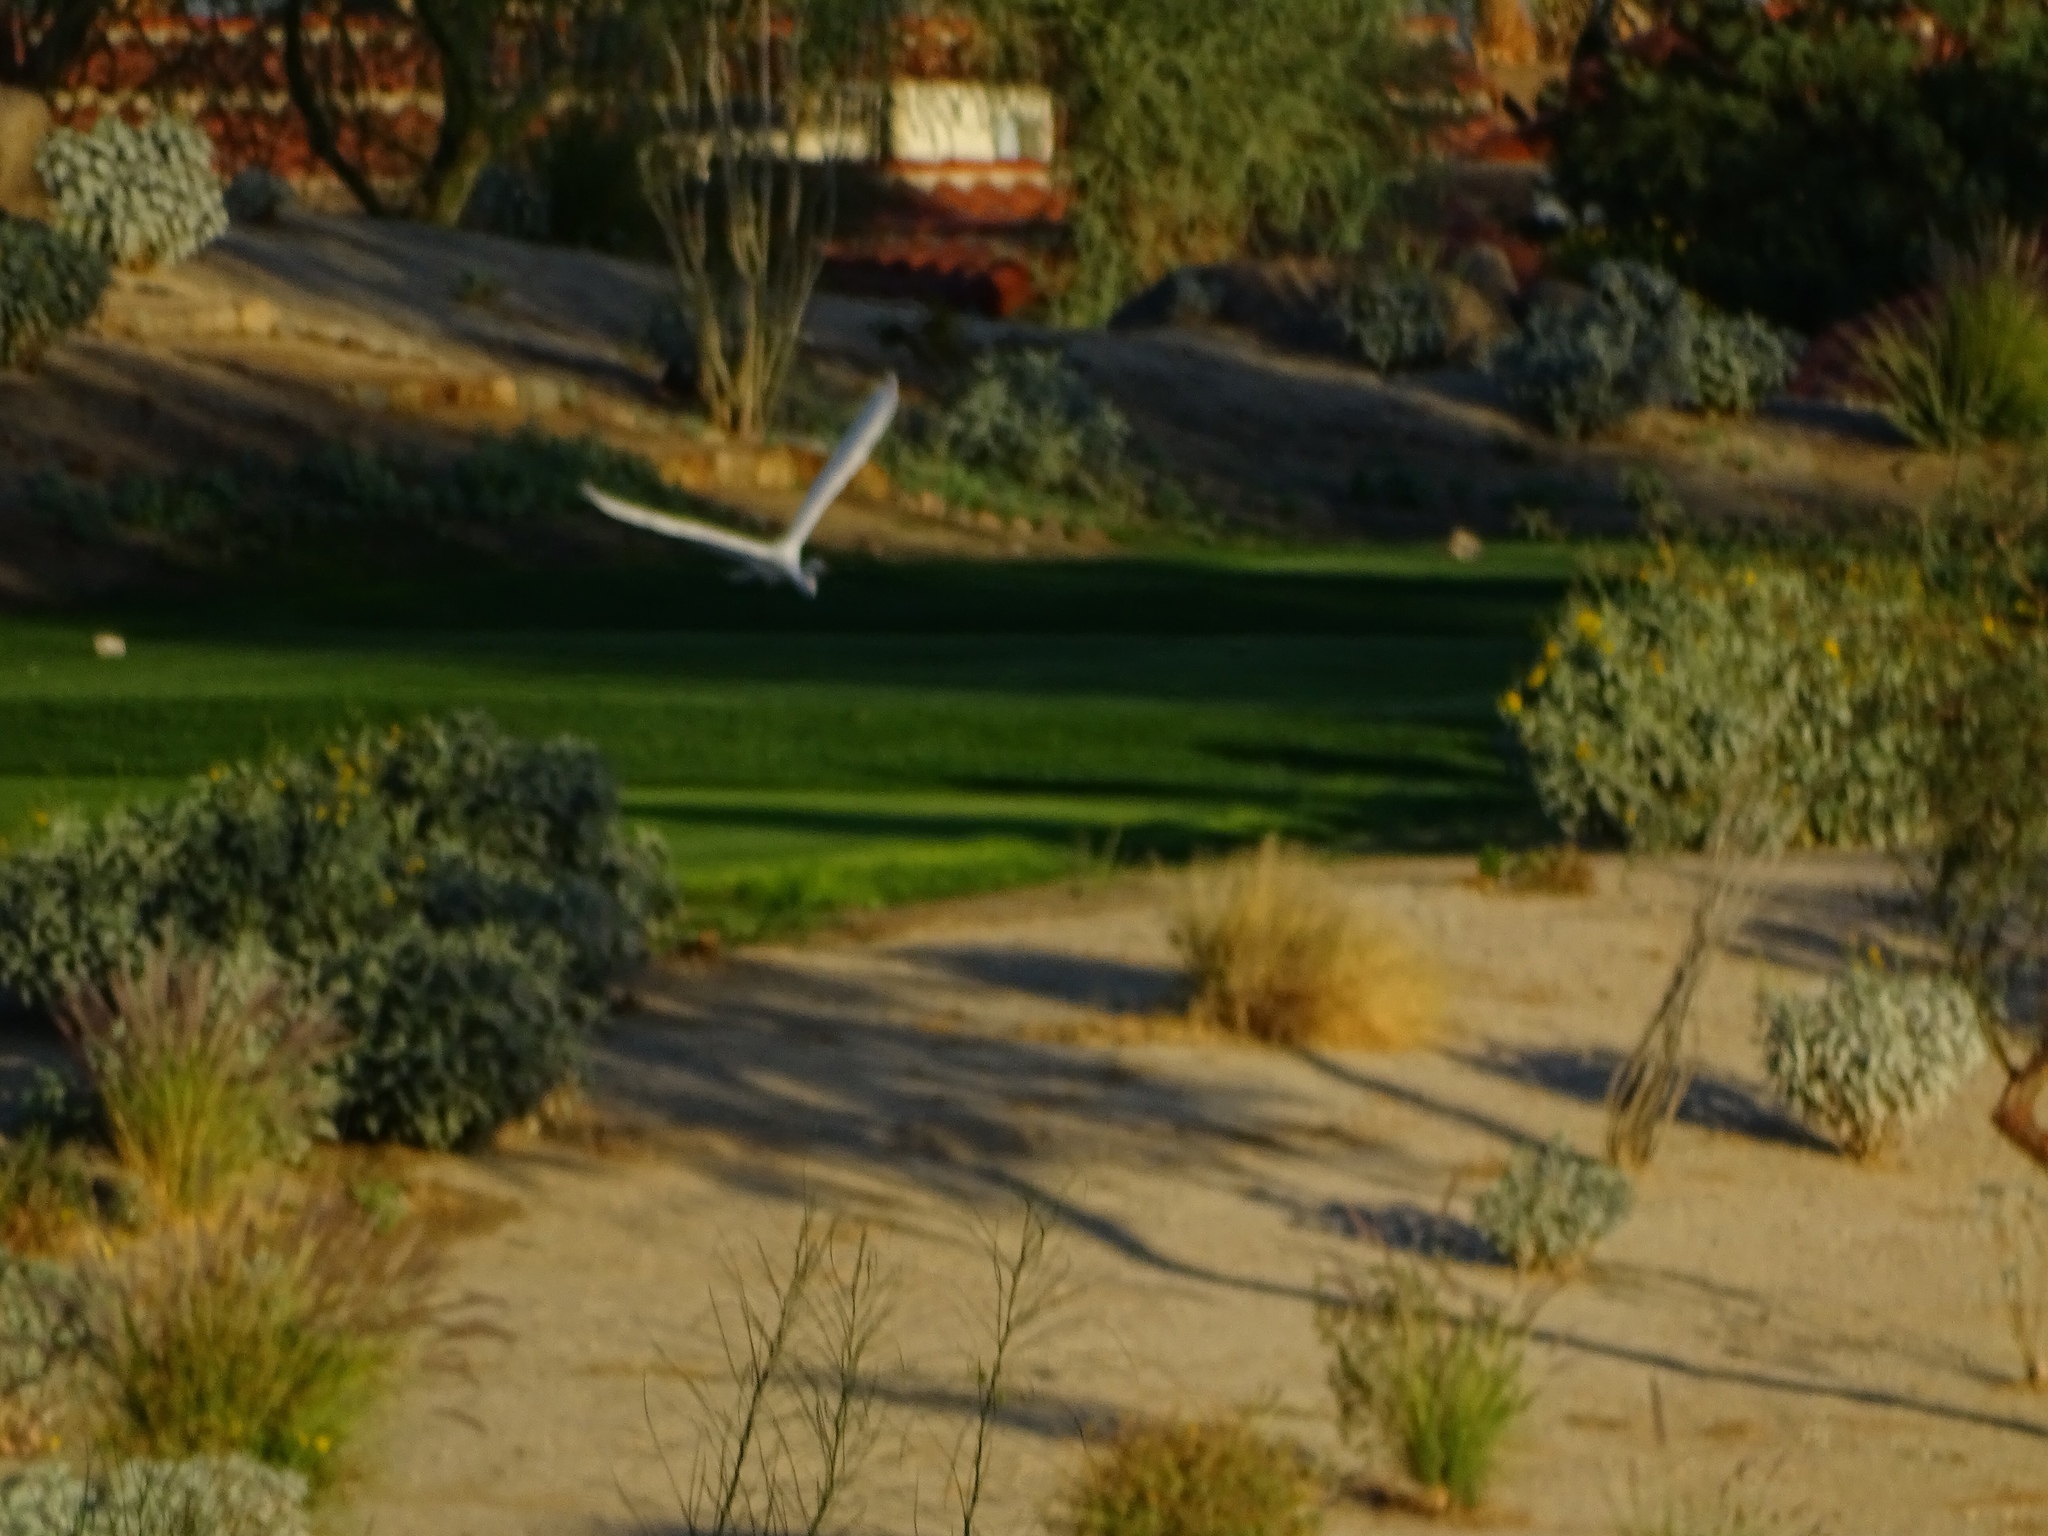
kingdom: Animalia
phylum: Chordata
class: Aves
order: Pelecaniformes
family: Ardeidae
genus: Ardea
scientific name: Ardea alba
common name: Great egret
